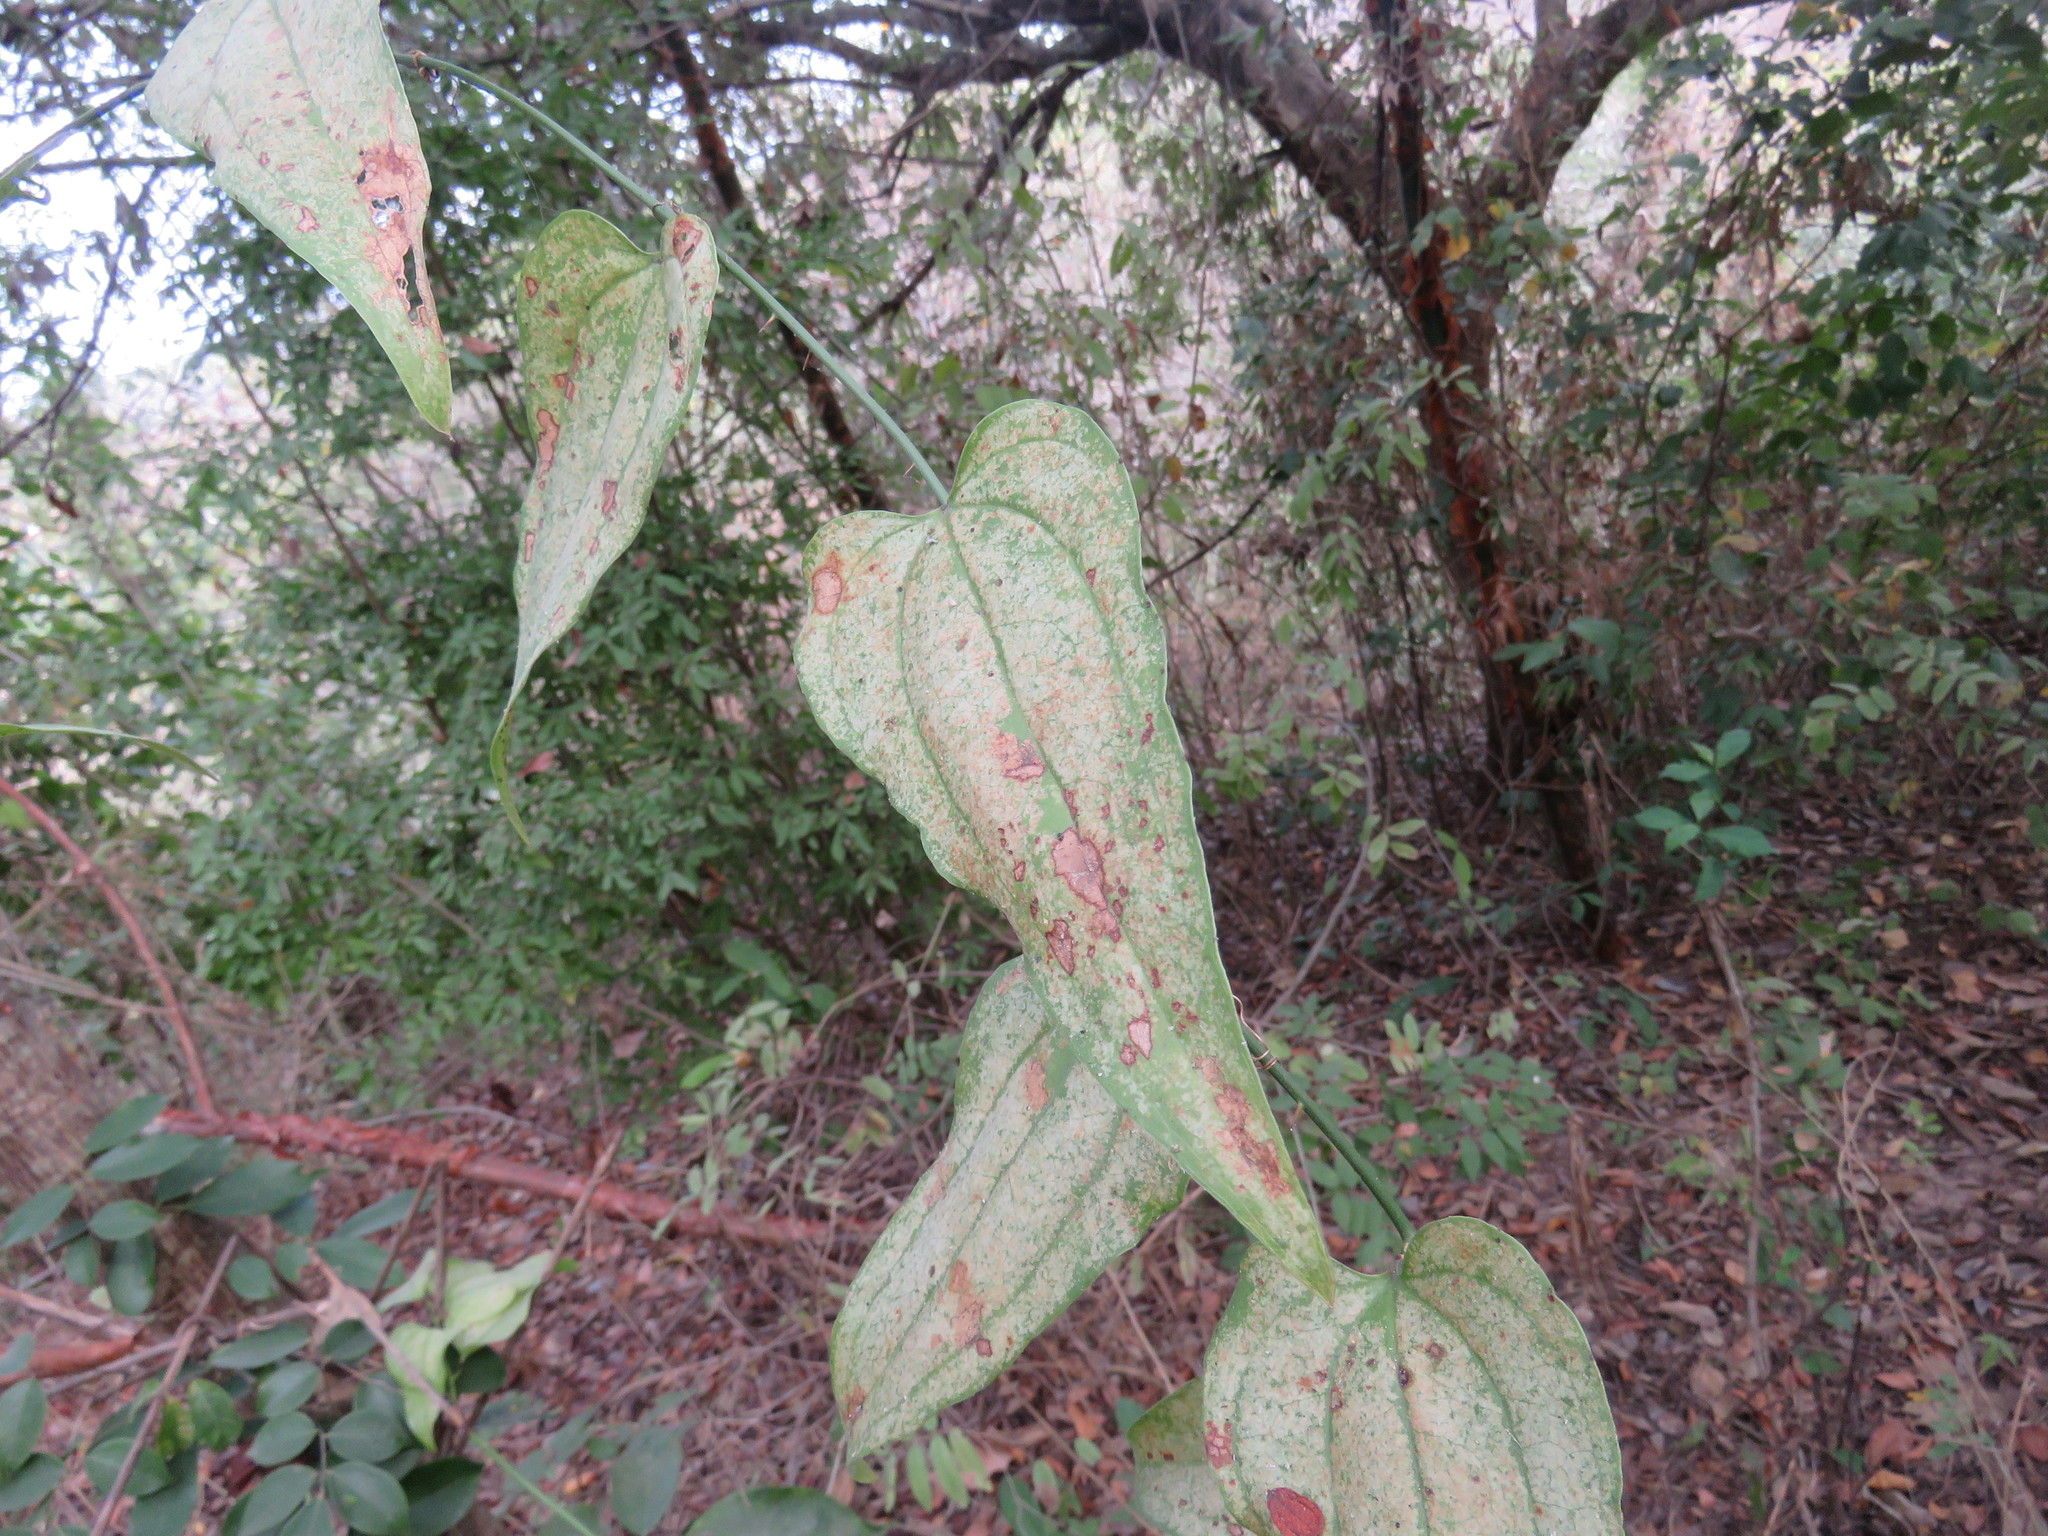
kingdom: Plantae
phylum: Tracheophyta
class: Liliopsida
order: Liliales
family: Smilacaceae
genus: Smilax
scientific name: Smilax moranensis
